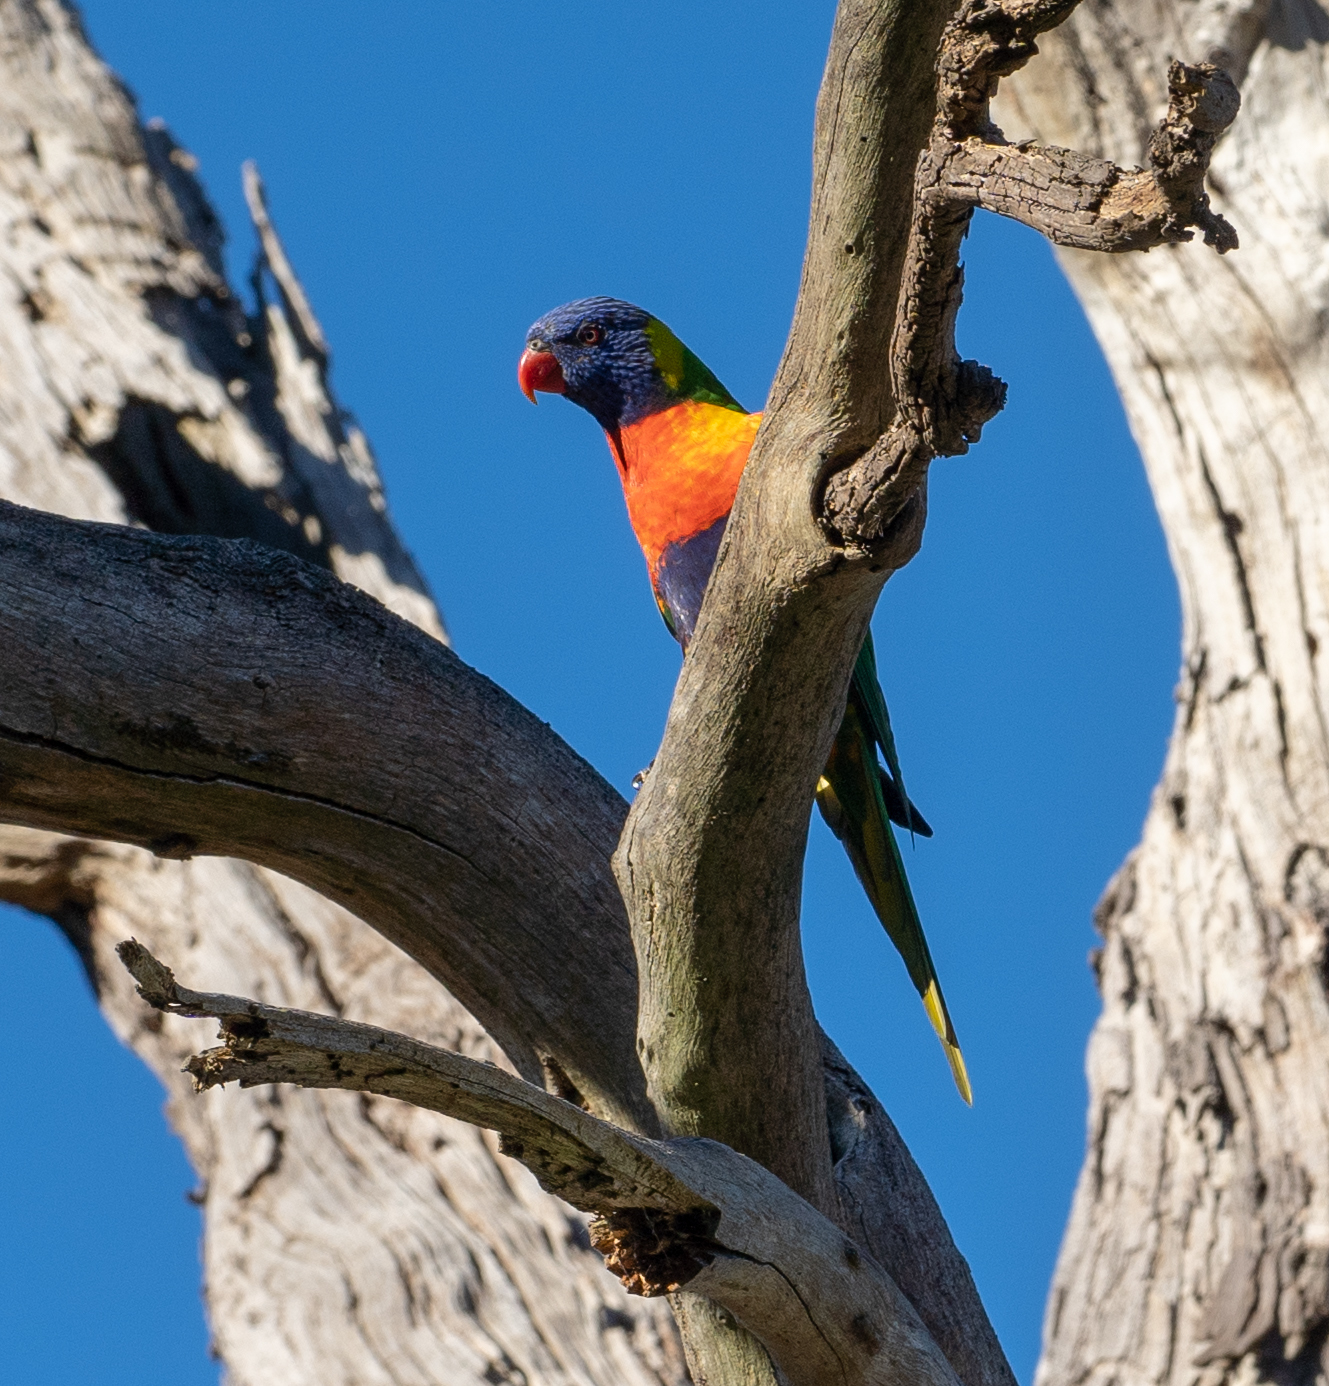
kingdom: Animalia
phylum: Chordata
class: Aves
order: Psittaciformes
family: Psittacidae
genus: Trichoglossus
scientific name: Trichoglossus haematodus
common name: Coconut lorikeet
